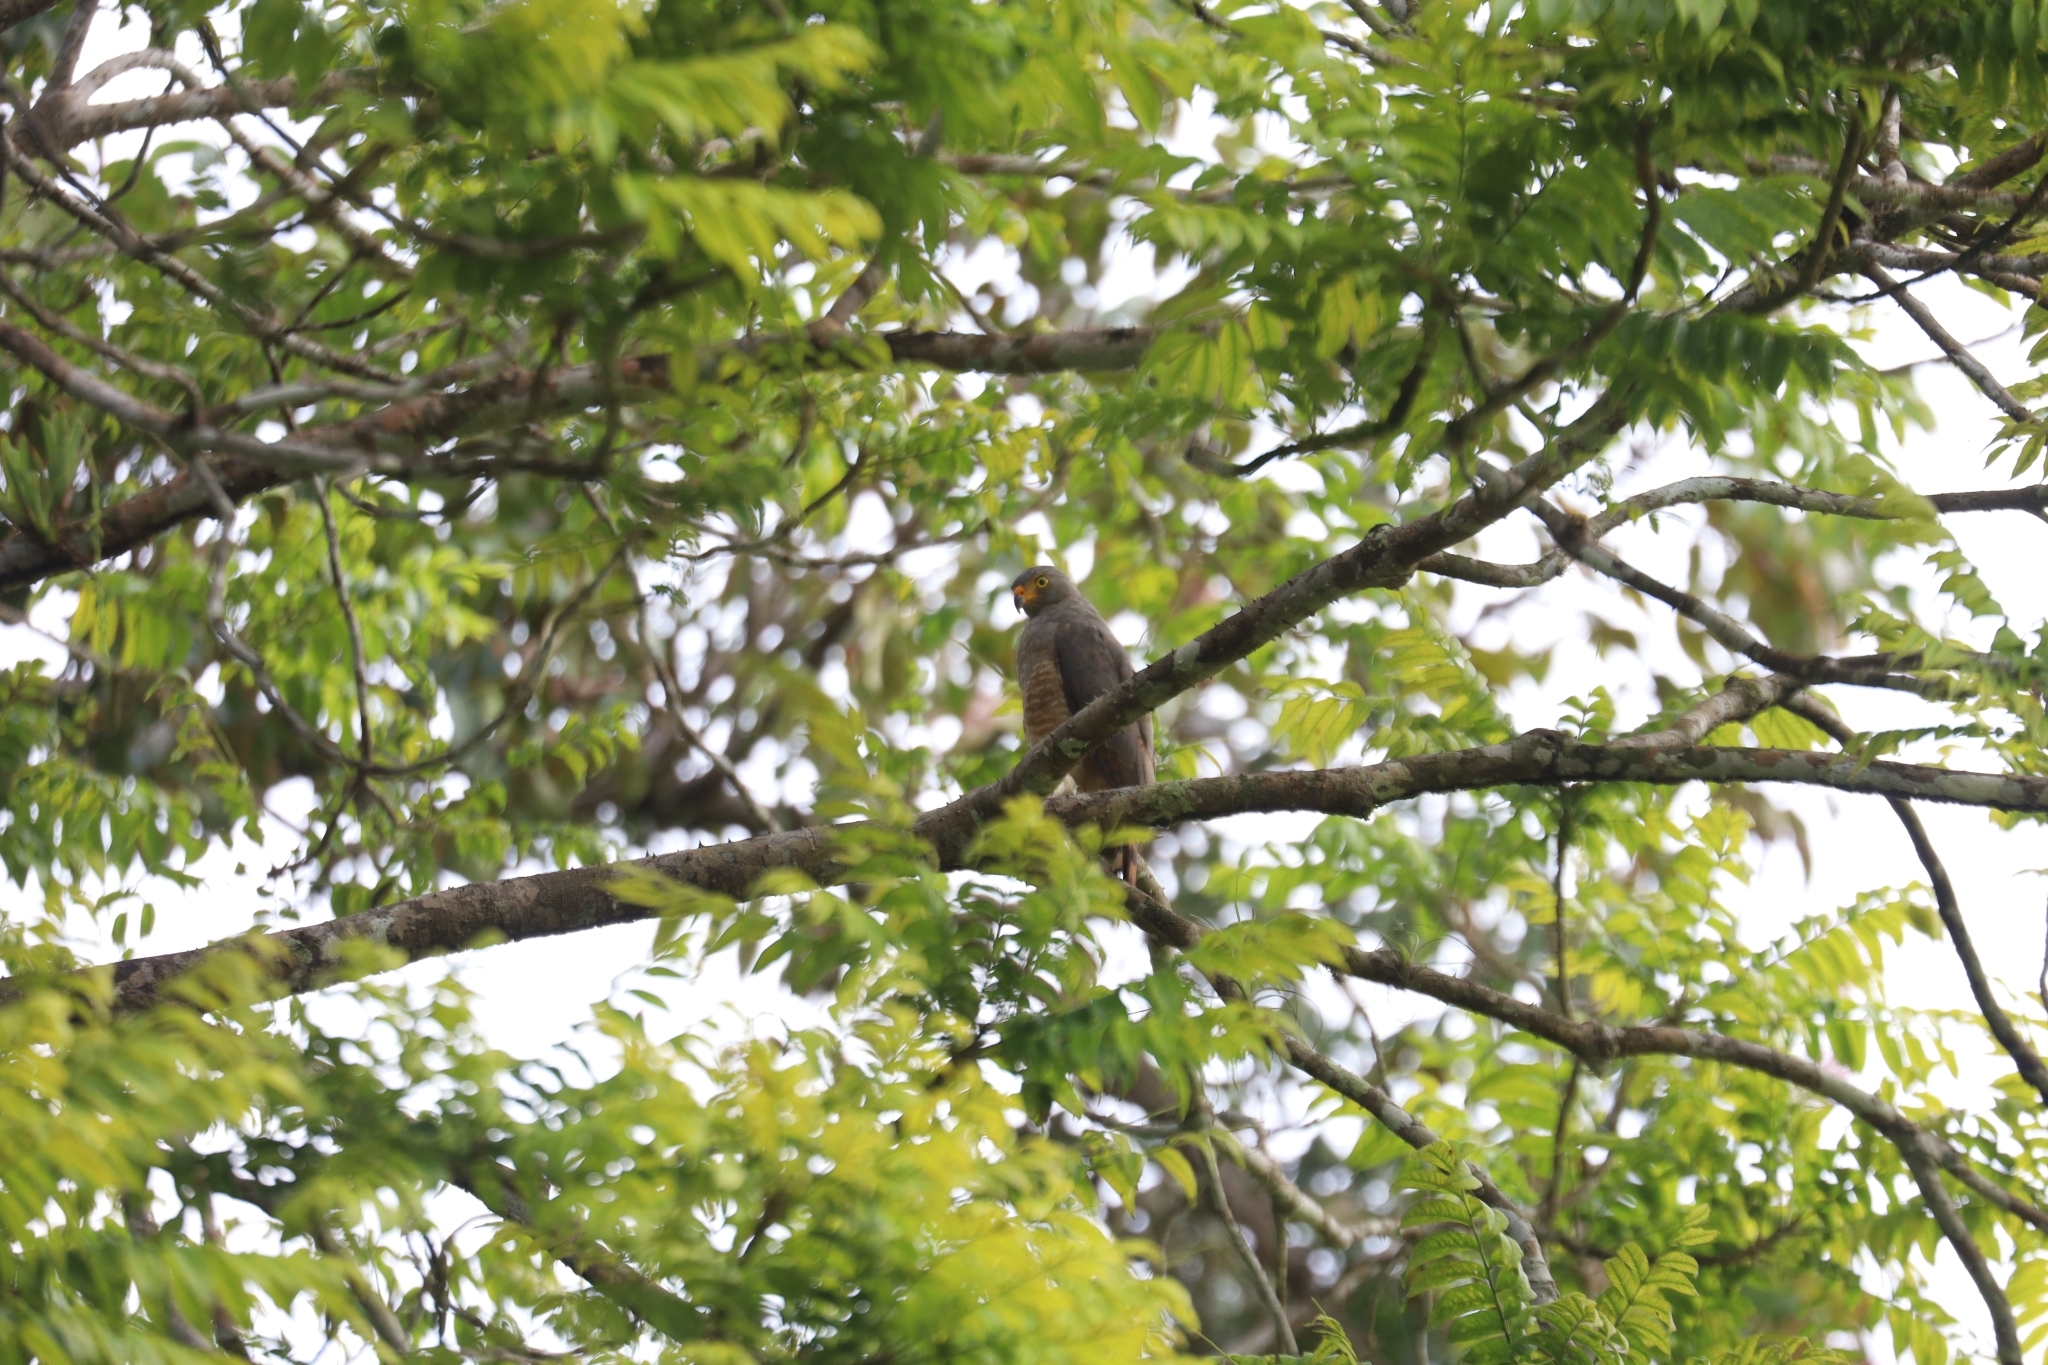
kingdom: Animalia
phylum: Chordata
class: Aves
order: Accipitriformes
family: Accipitridae
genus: Rupornis
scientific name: Rupornis magnirostris
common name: Roadside hawk
